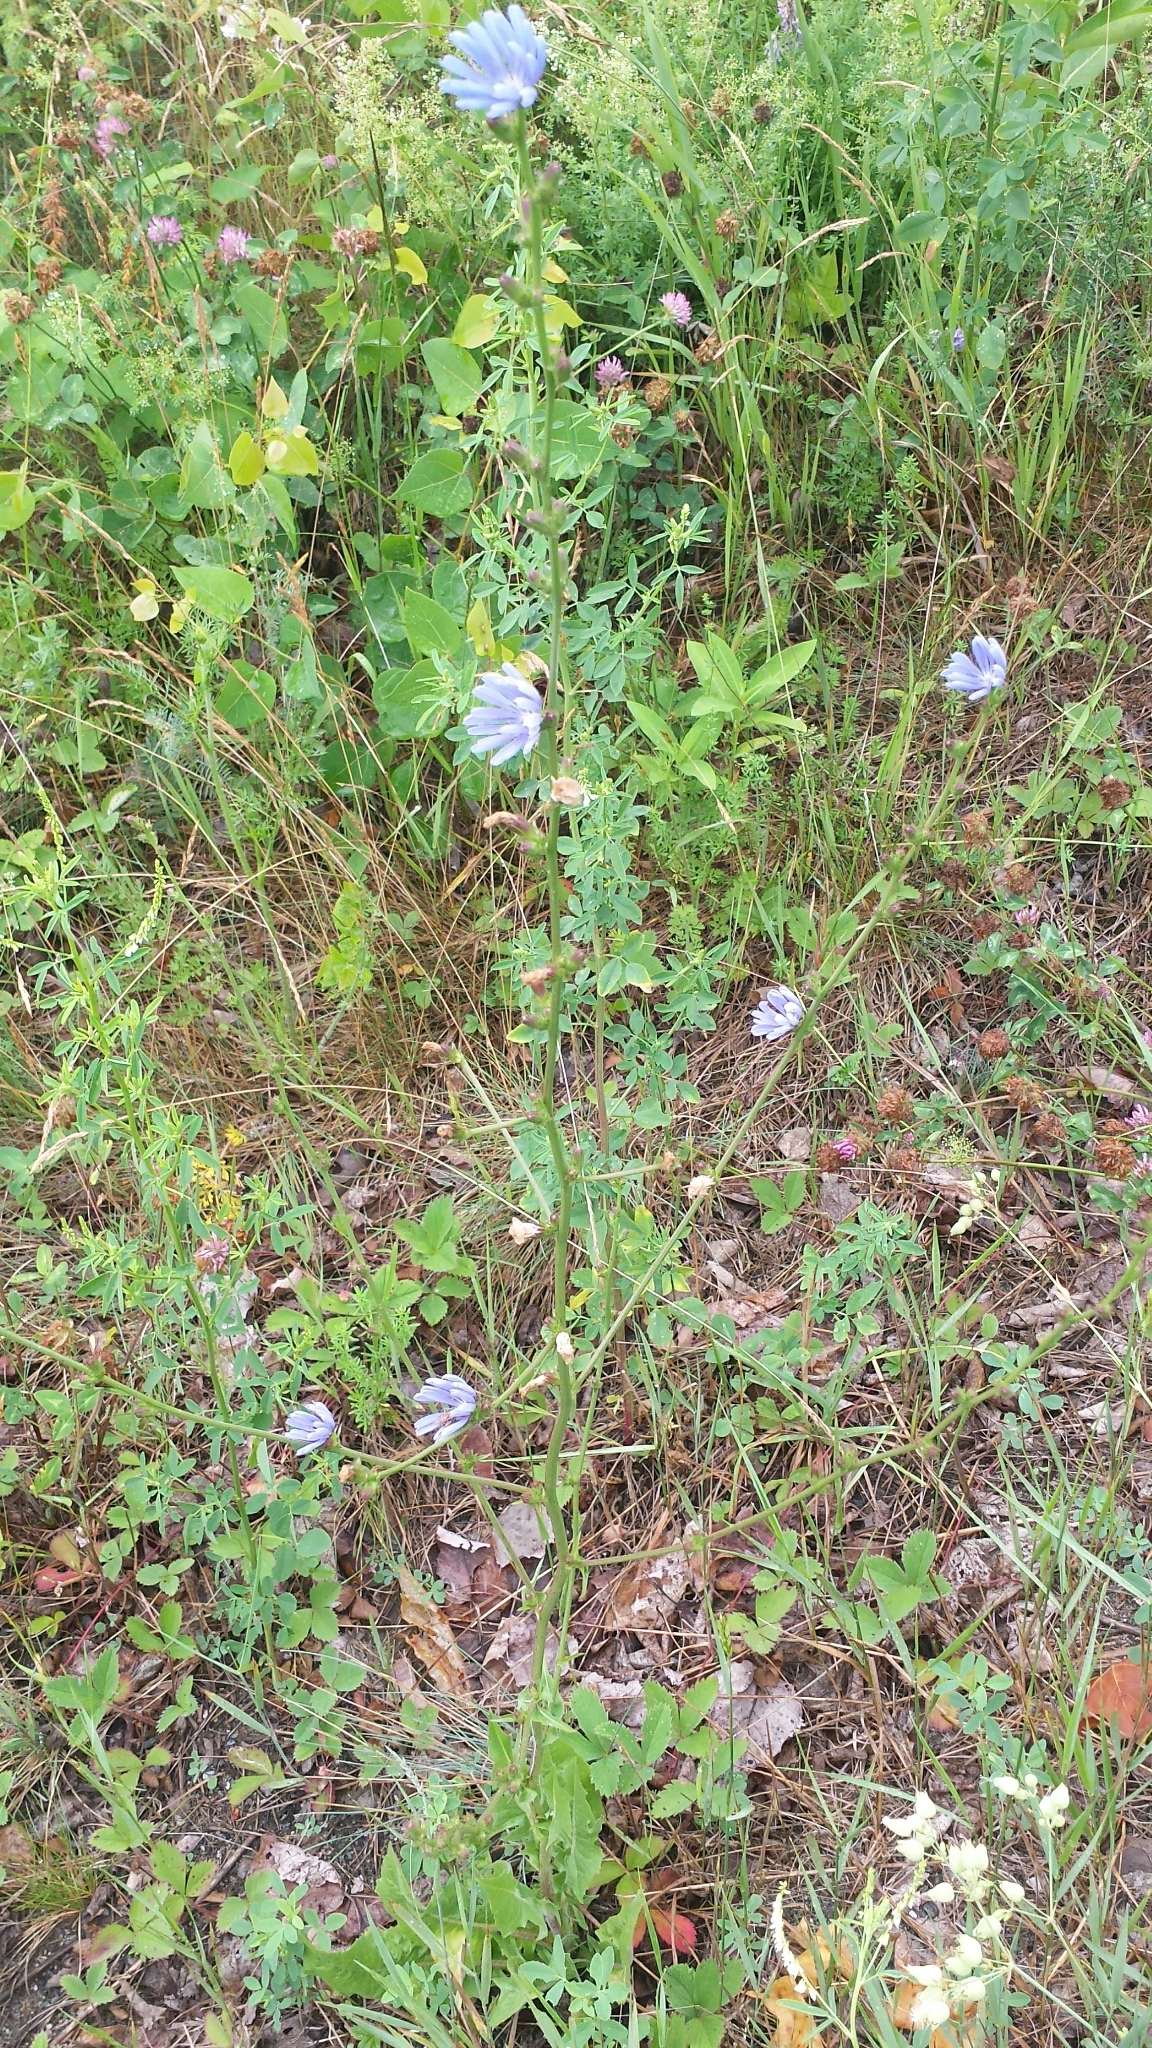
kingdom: Plantae
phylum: Tracheophyta
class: Magnoliopsida
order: Asterales
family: Asteraceae
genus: Cichorium
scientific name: Cichorium intybus
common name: Chicory
